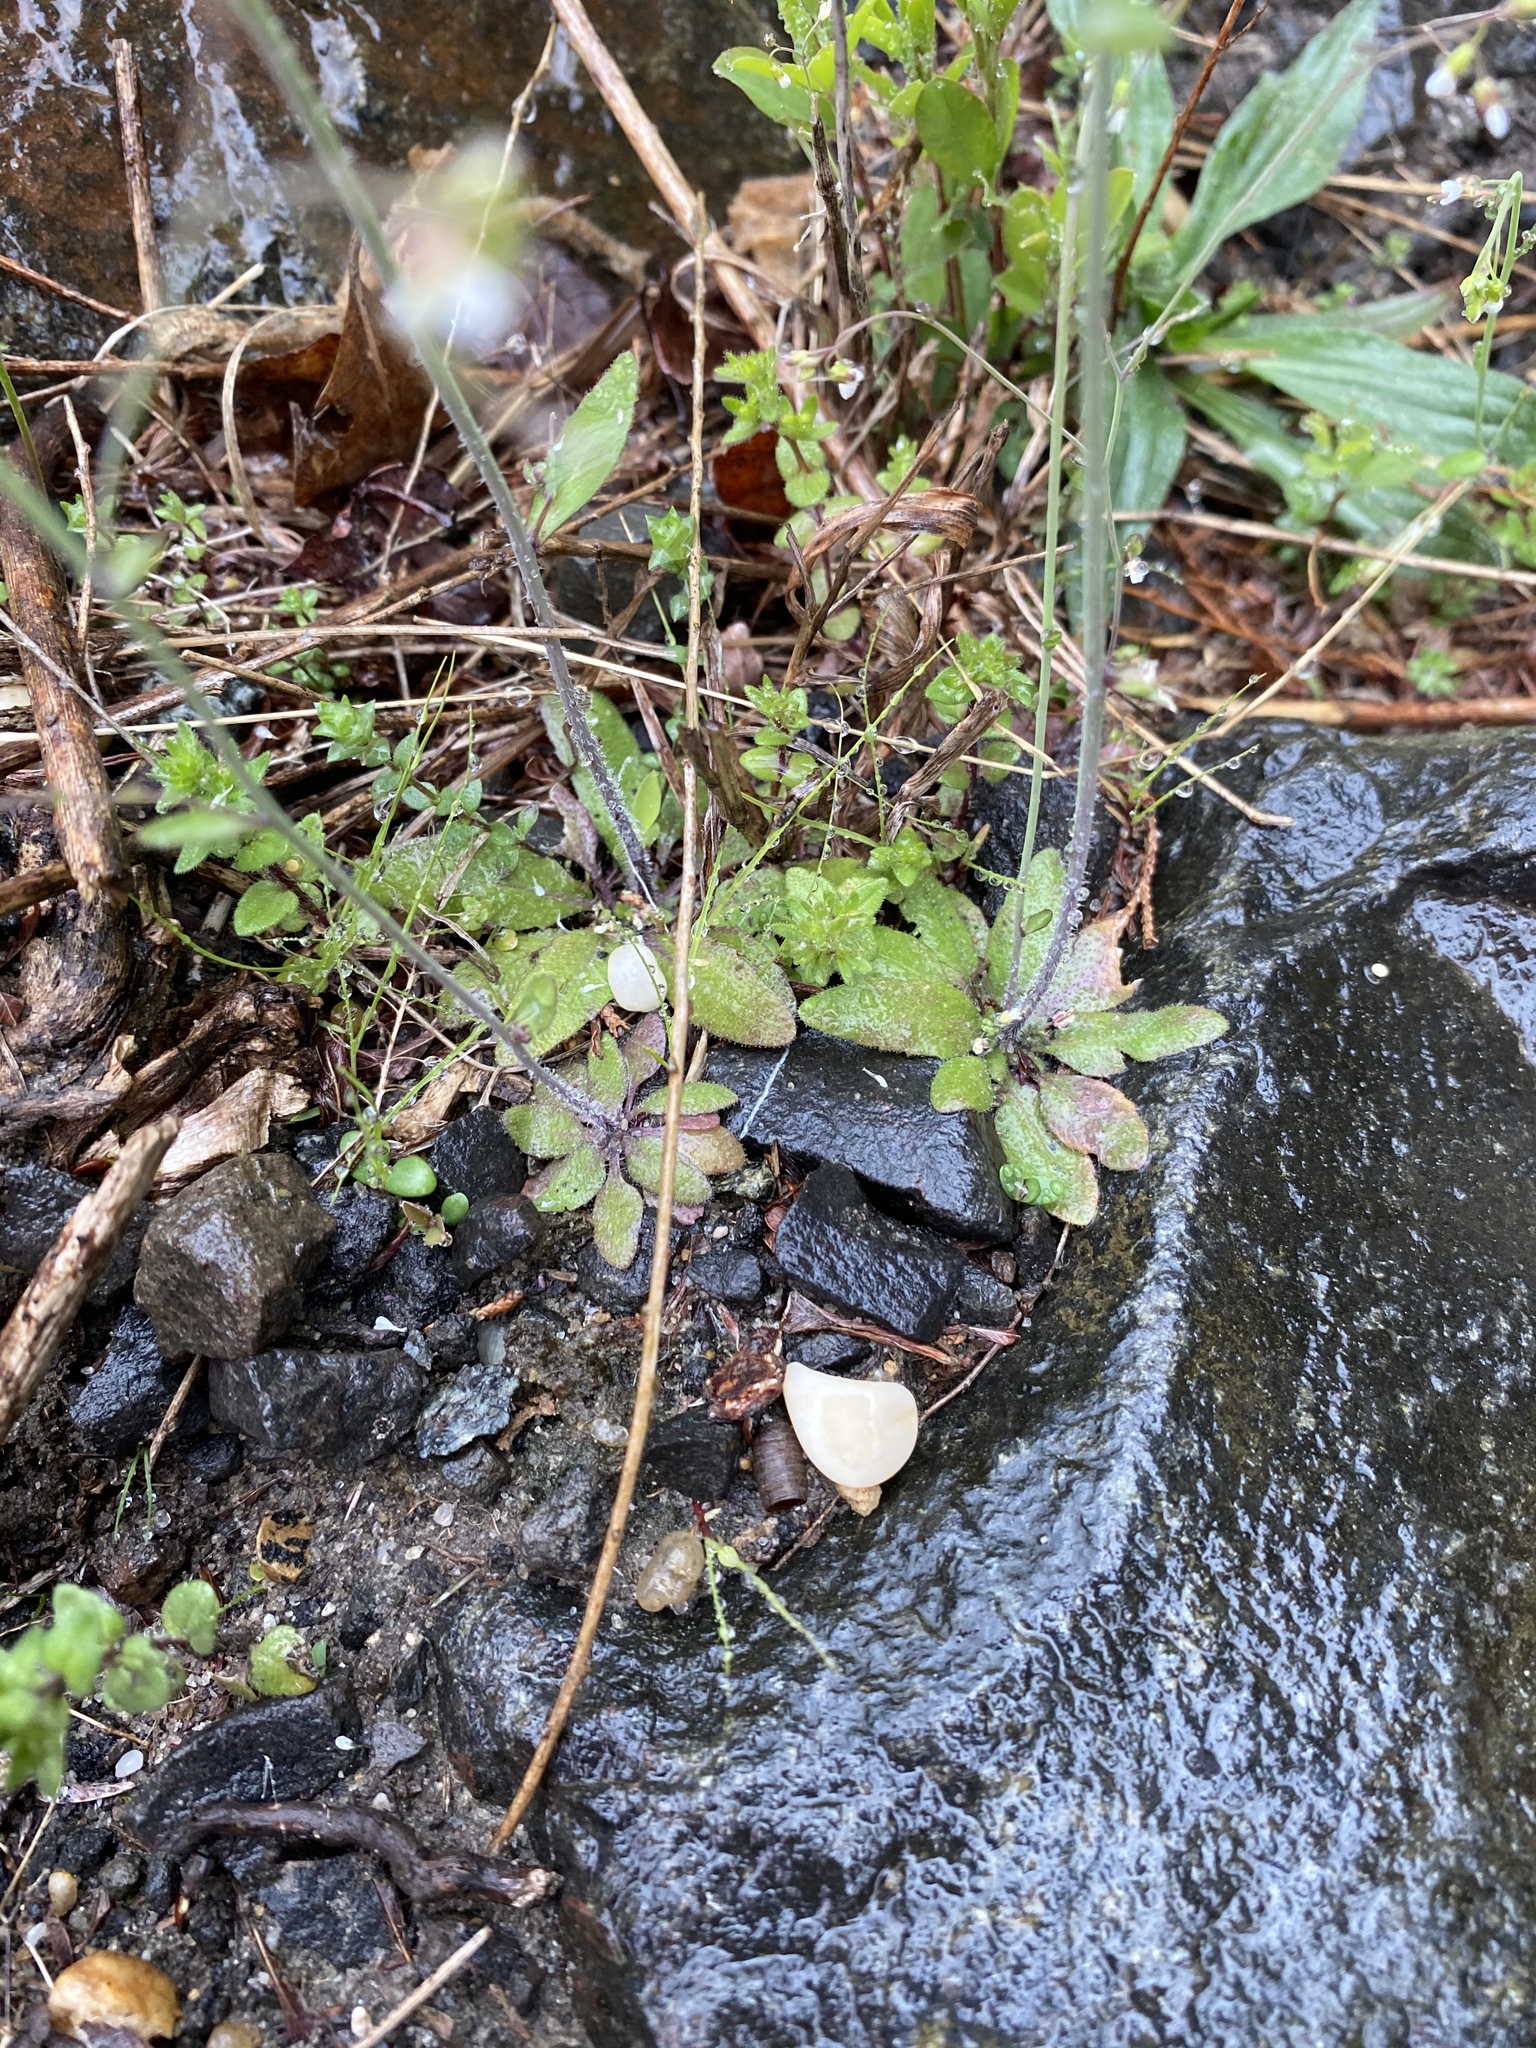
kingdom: Plantae
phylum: Tracheophyta
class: Magnoliopsida
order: Brassicales
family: Brassicaceae
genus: Arabidopsis
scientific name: Arabidopsis thaliana
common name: Thale cress
